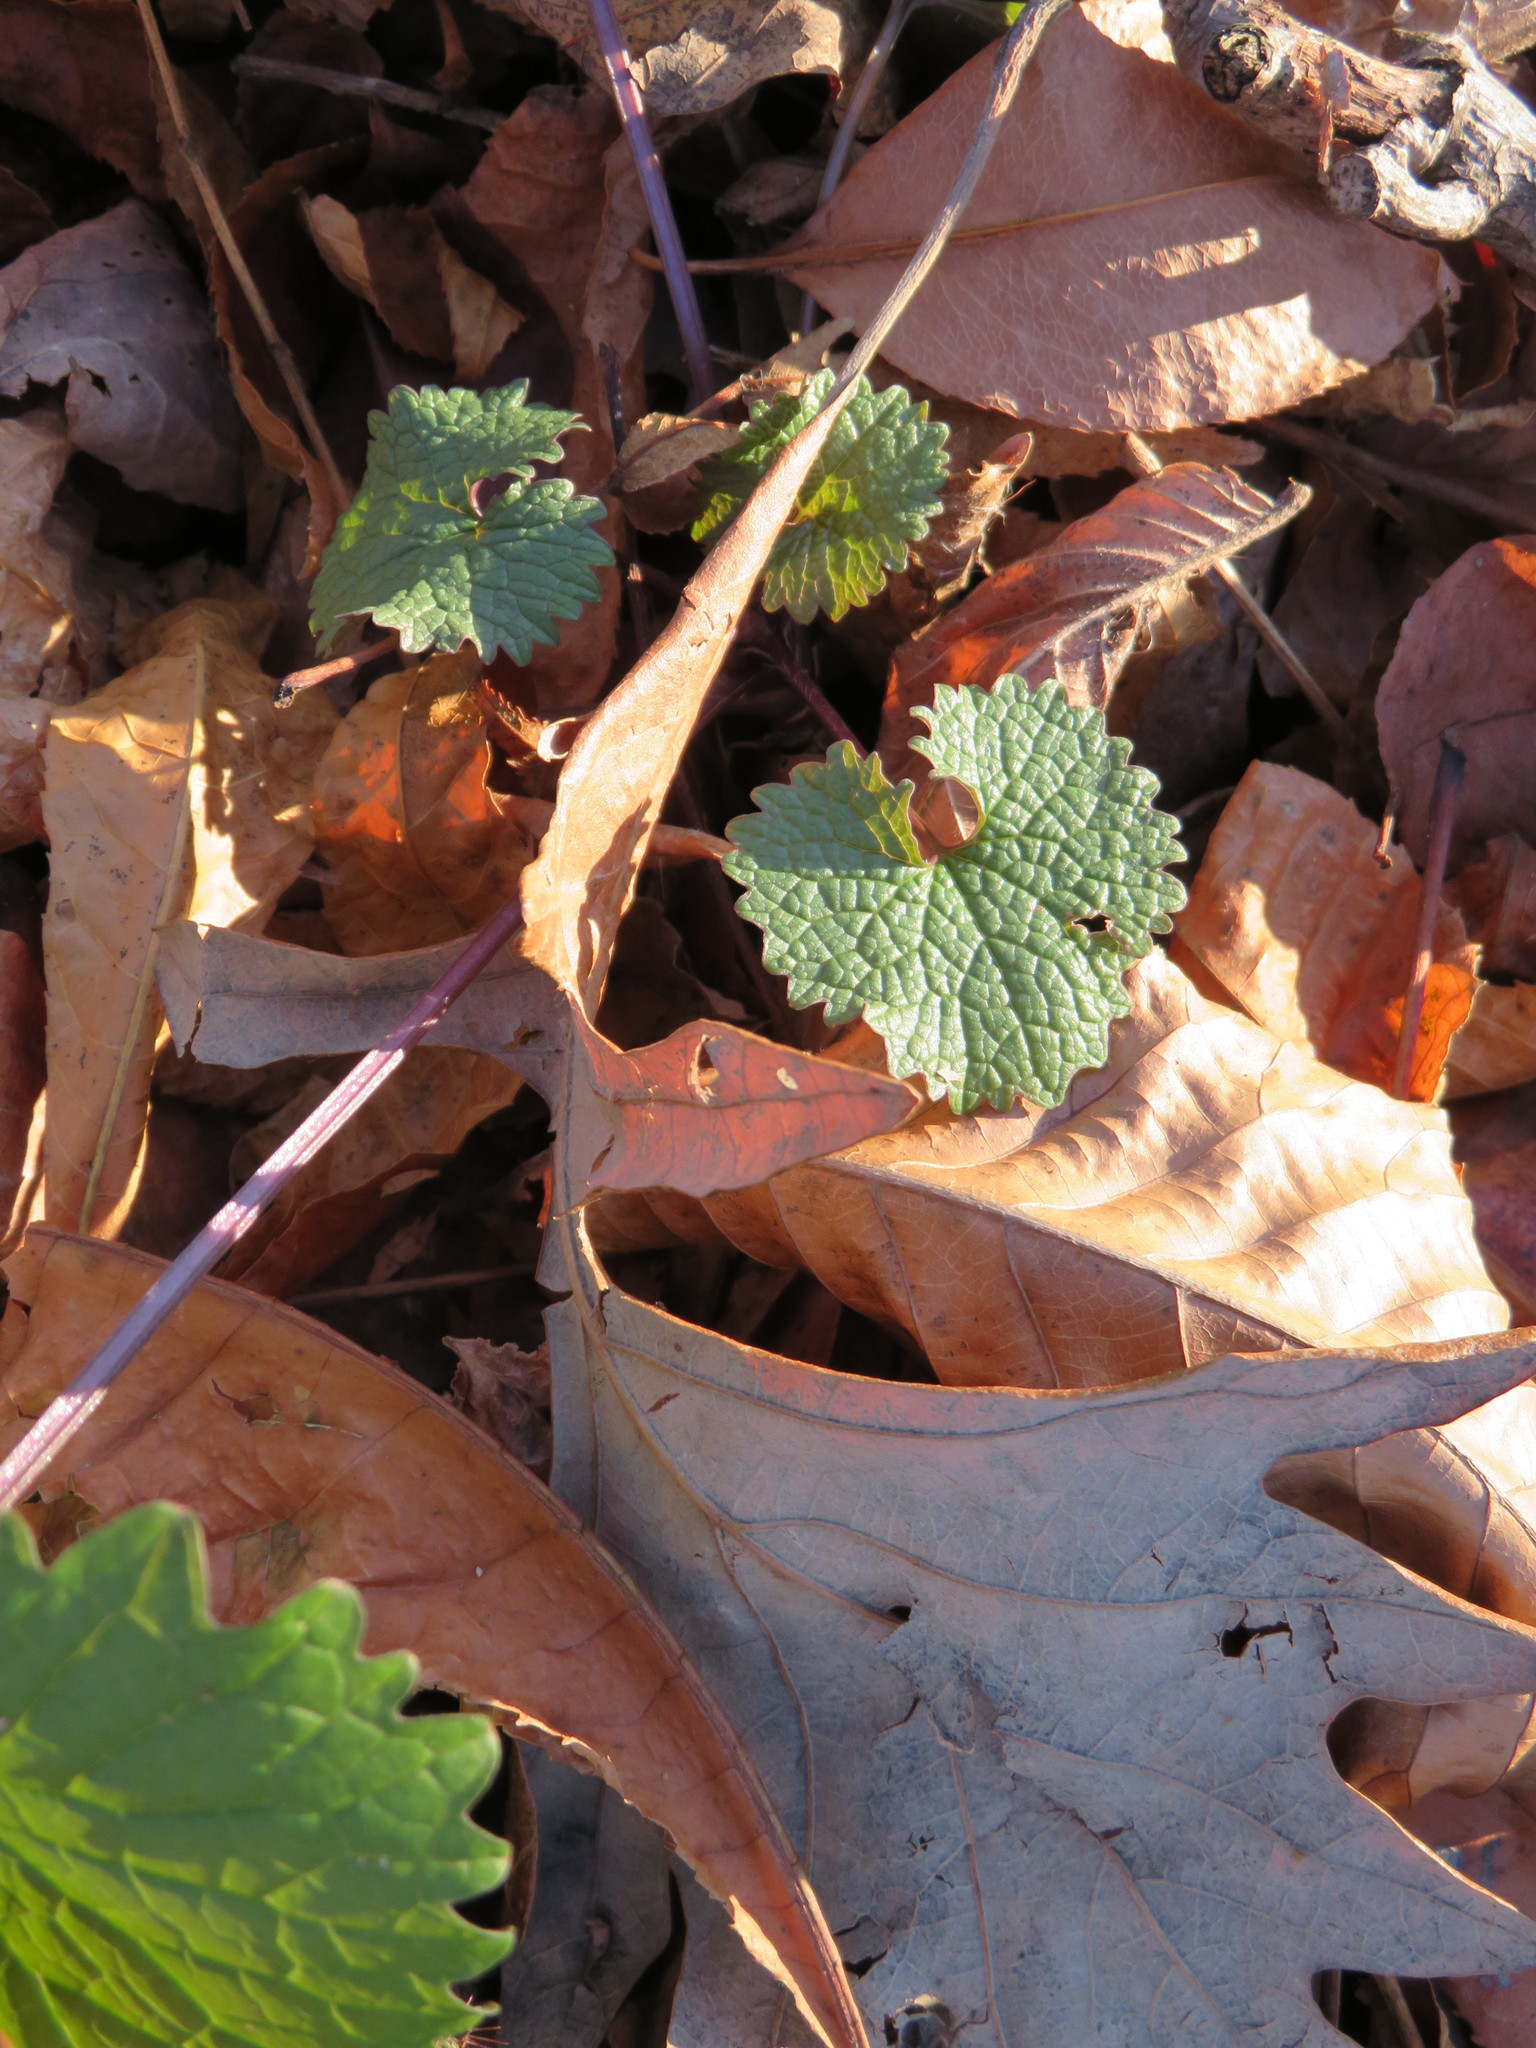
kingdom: Plantae
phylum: Tracheophyta
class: Magnoliopsida
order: Brassicales
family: Brassicaceae
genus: Alliaria
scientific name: Alliaria petiolata
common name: Garlic mustard
